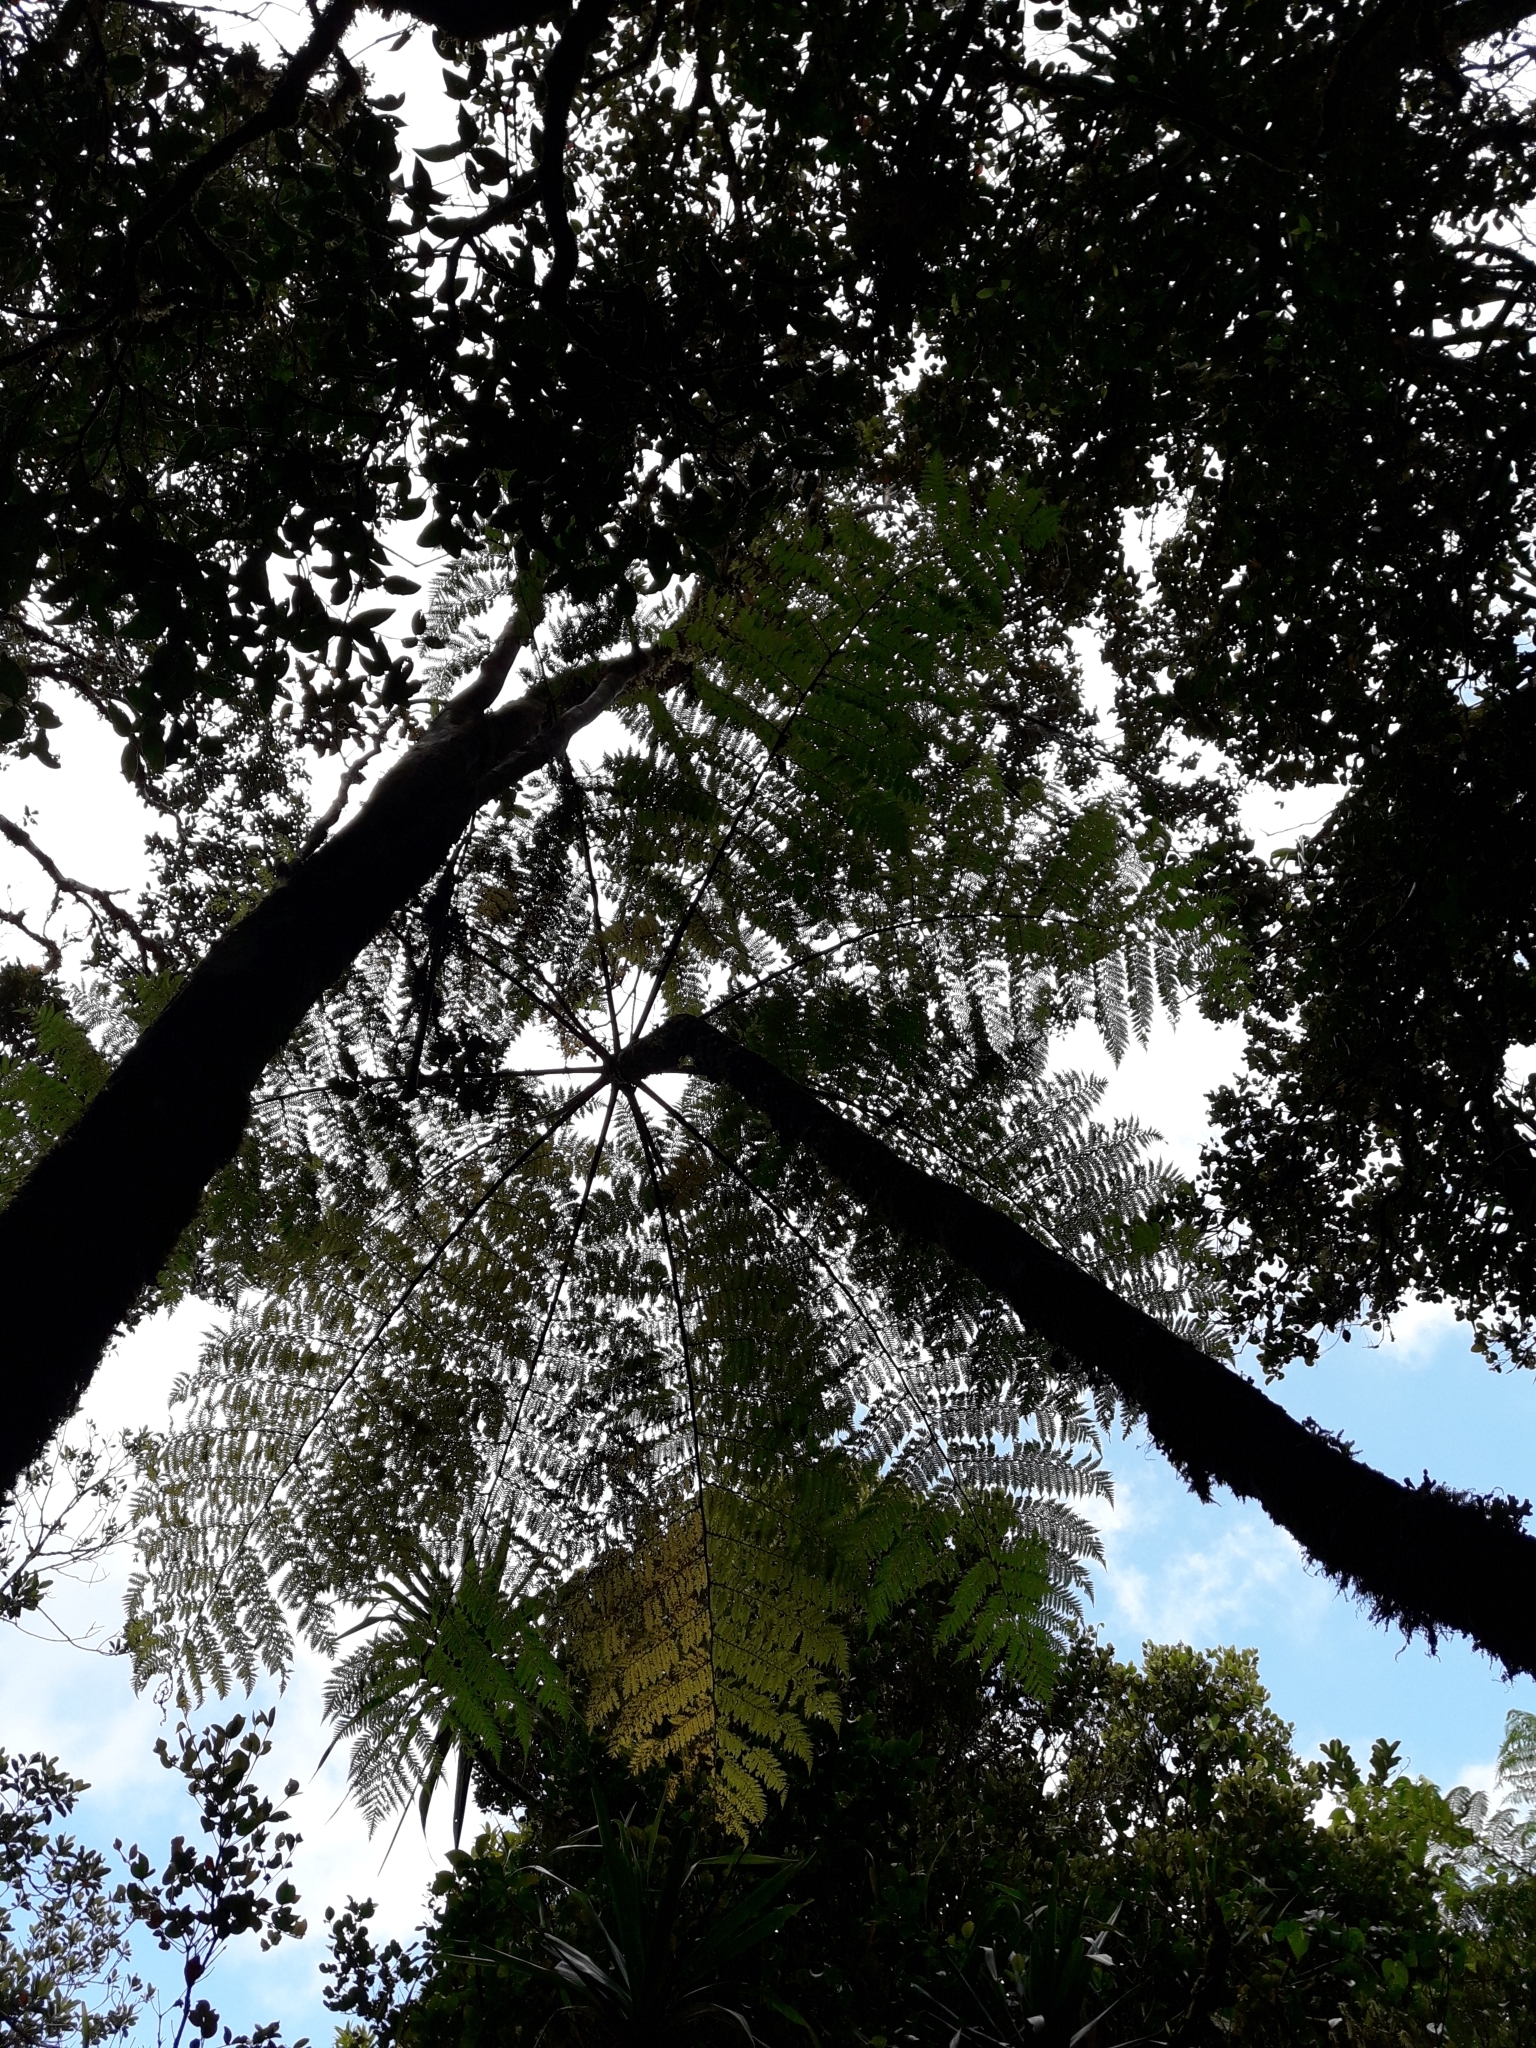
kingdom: Plantae
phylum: Tracheophyta
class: Polypodiopsida
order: Cyatheales
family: Cyatheaceae
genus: Cyathea
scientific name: Cyathea alata
